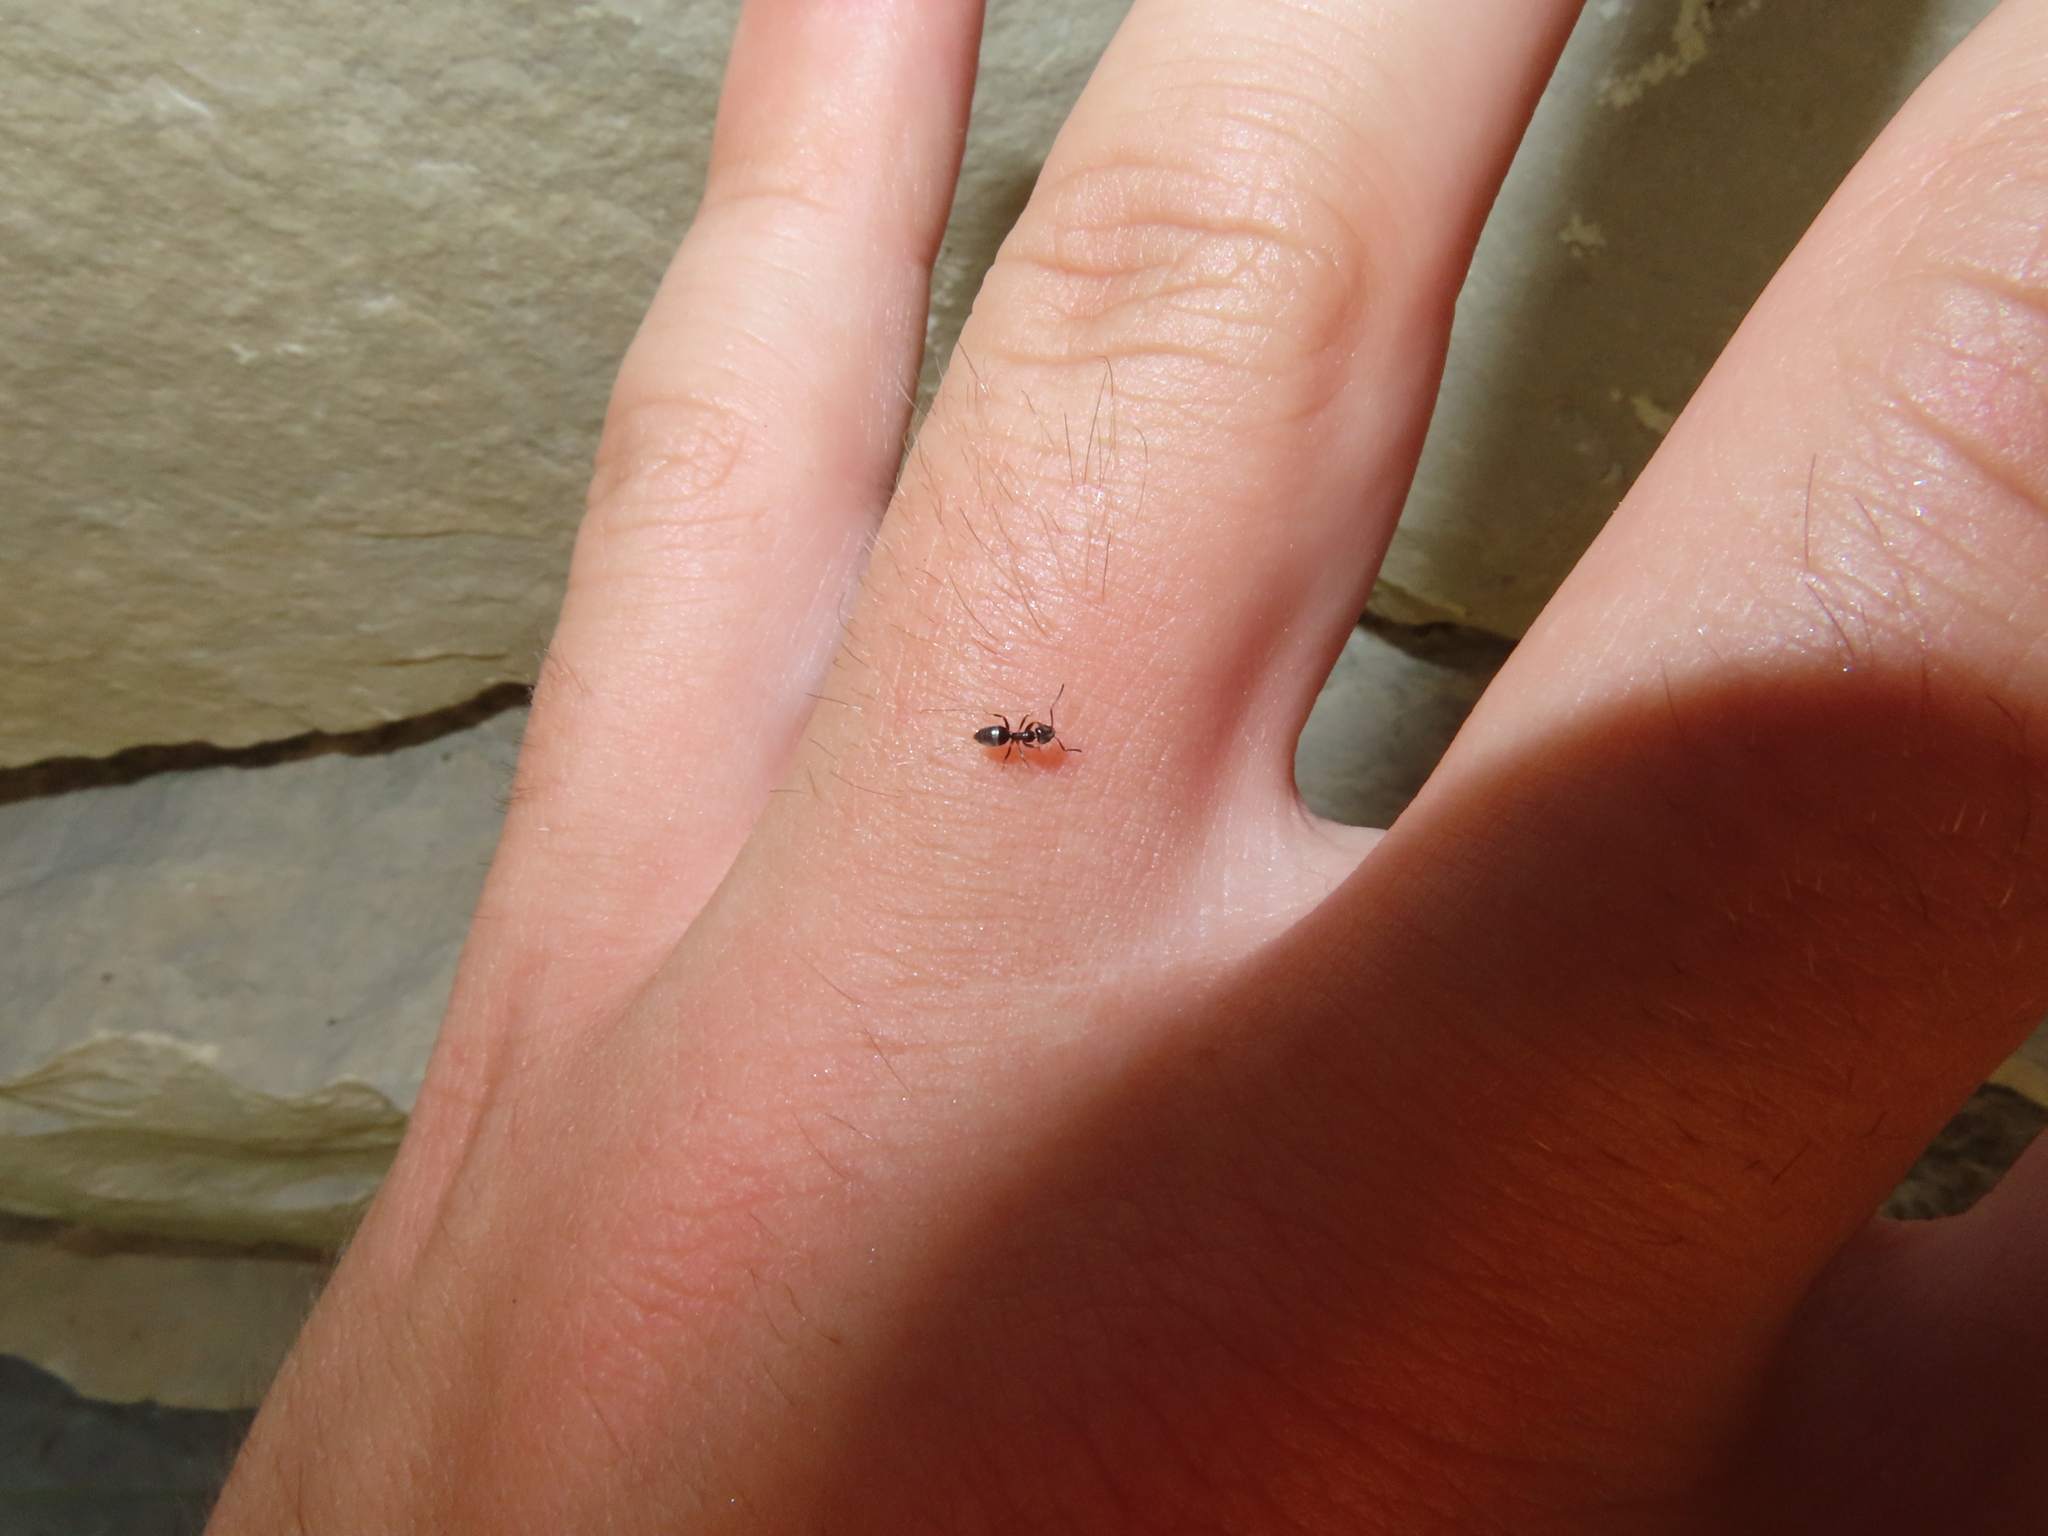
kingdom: Animalia
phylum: Arthropoda
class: Insecta
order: Hymenoptera
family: Formicidae
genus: Tapinoma
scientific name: Tapinoma sessile
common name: Odorous house ant
